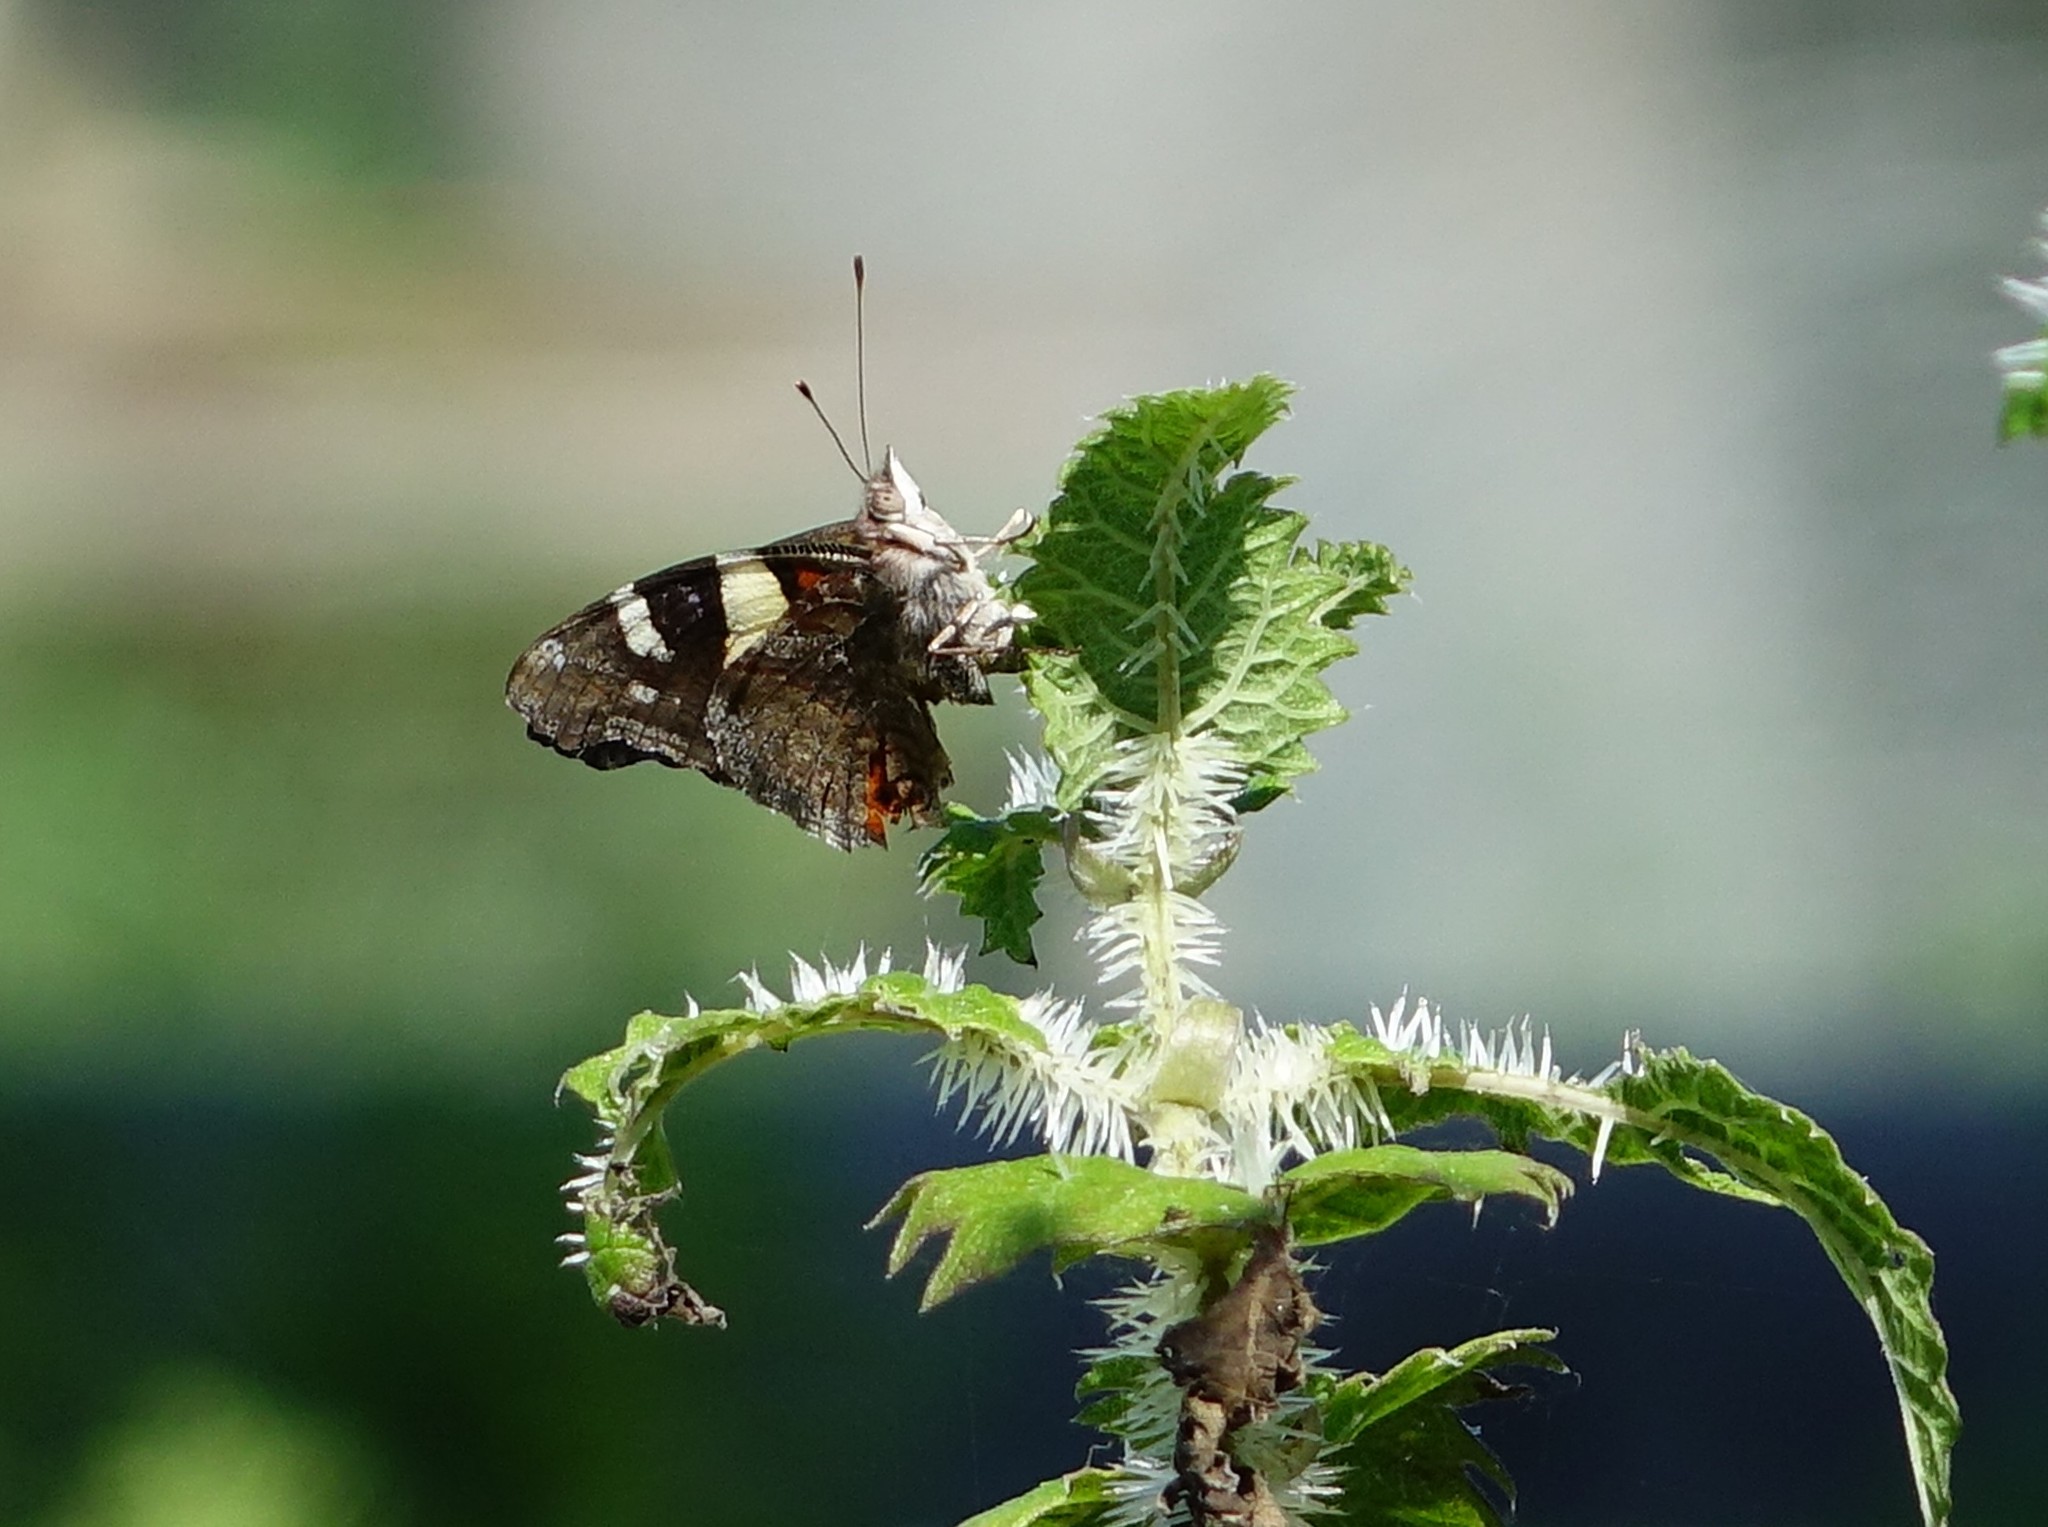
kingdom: Animalia
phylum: Arthropoda
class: Insecta
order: Lepidoptera
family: Nymphalidae
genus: Vanessa
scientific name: Vanessa itea
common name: Yellow admiral
